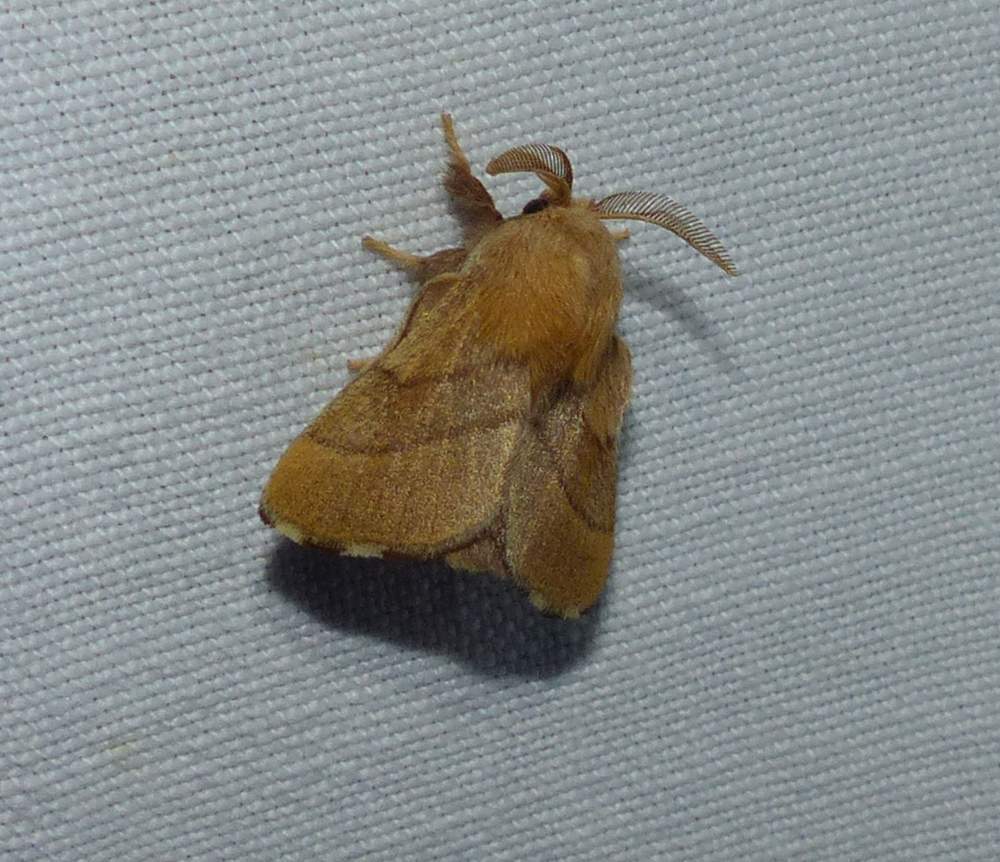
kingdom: Animalia
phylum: Arthropoda
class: Insecta
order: Lepidoptera
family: Lasiocampidae
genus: Malacosoma
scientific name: Malacosoma disstria
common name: Forest tent caterpillar
